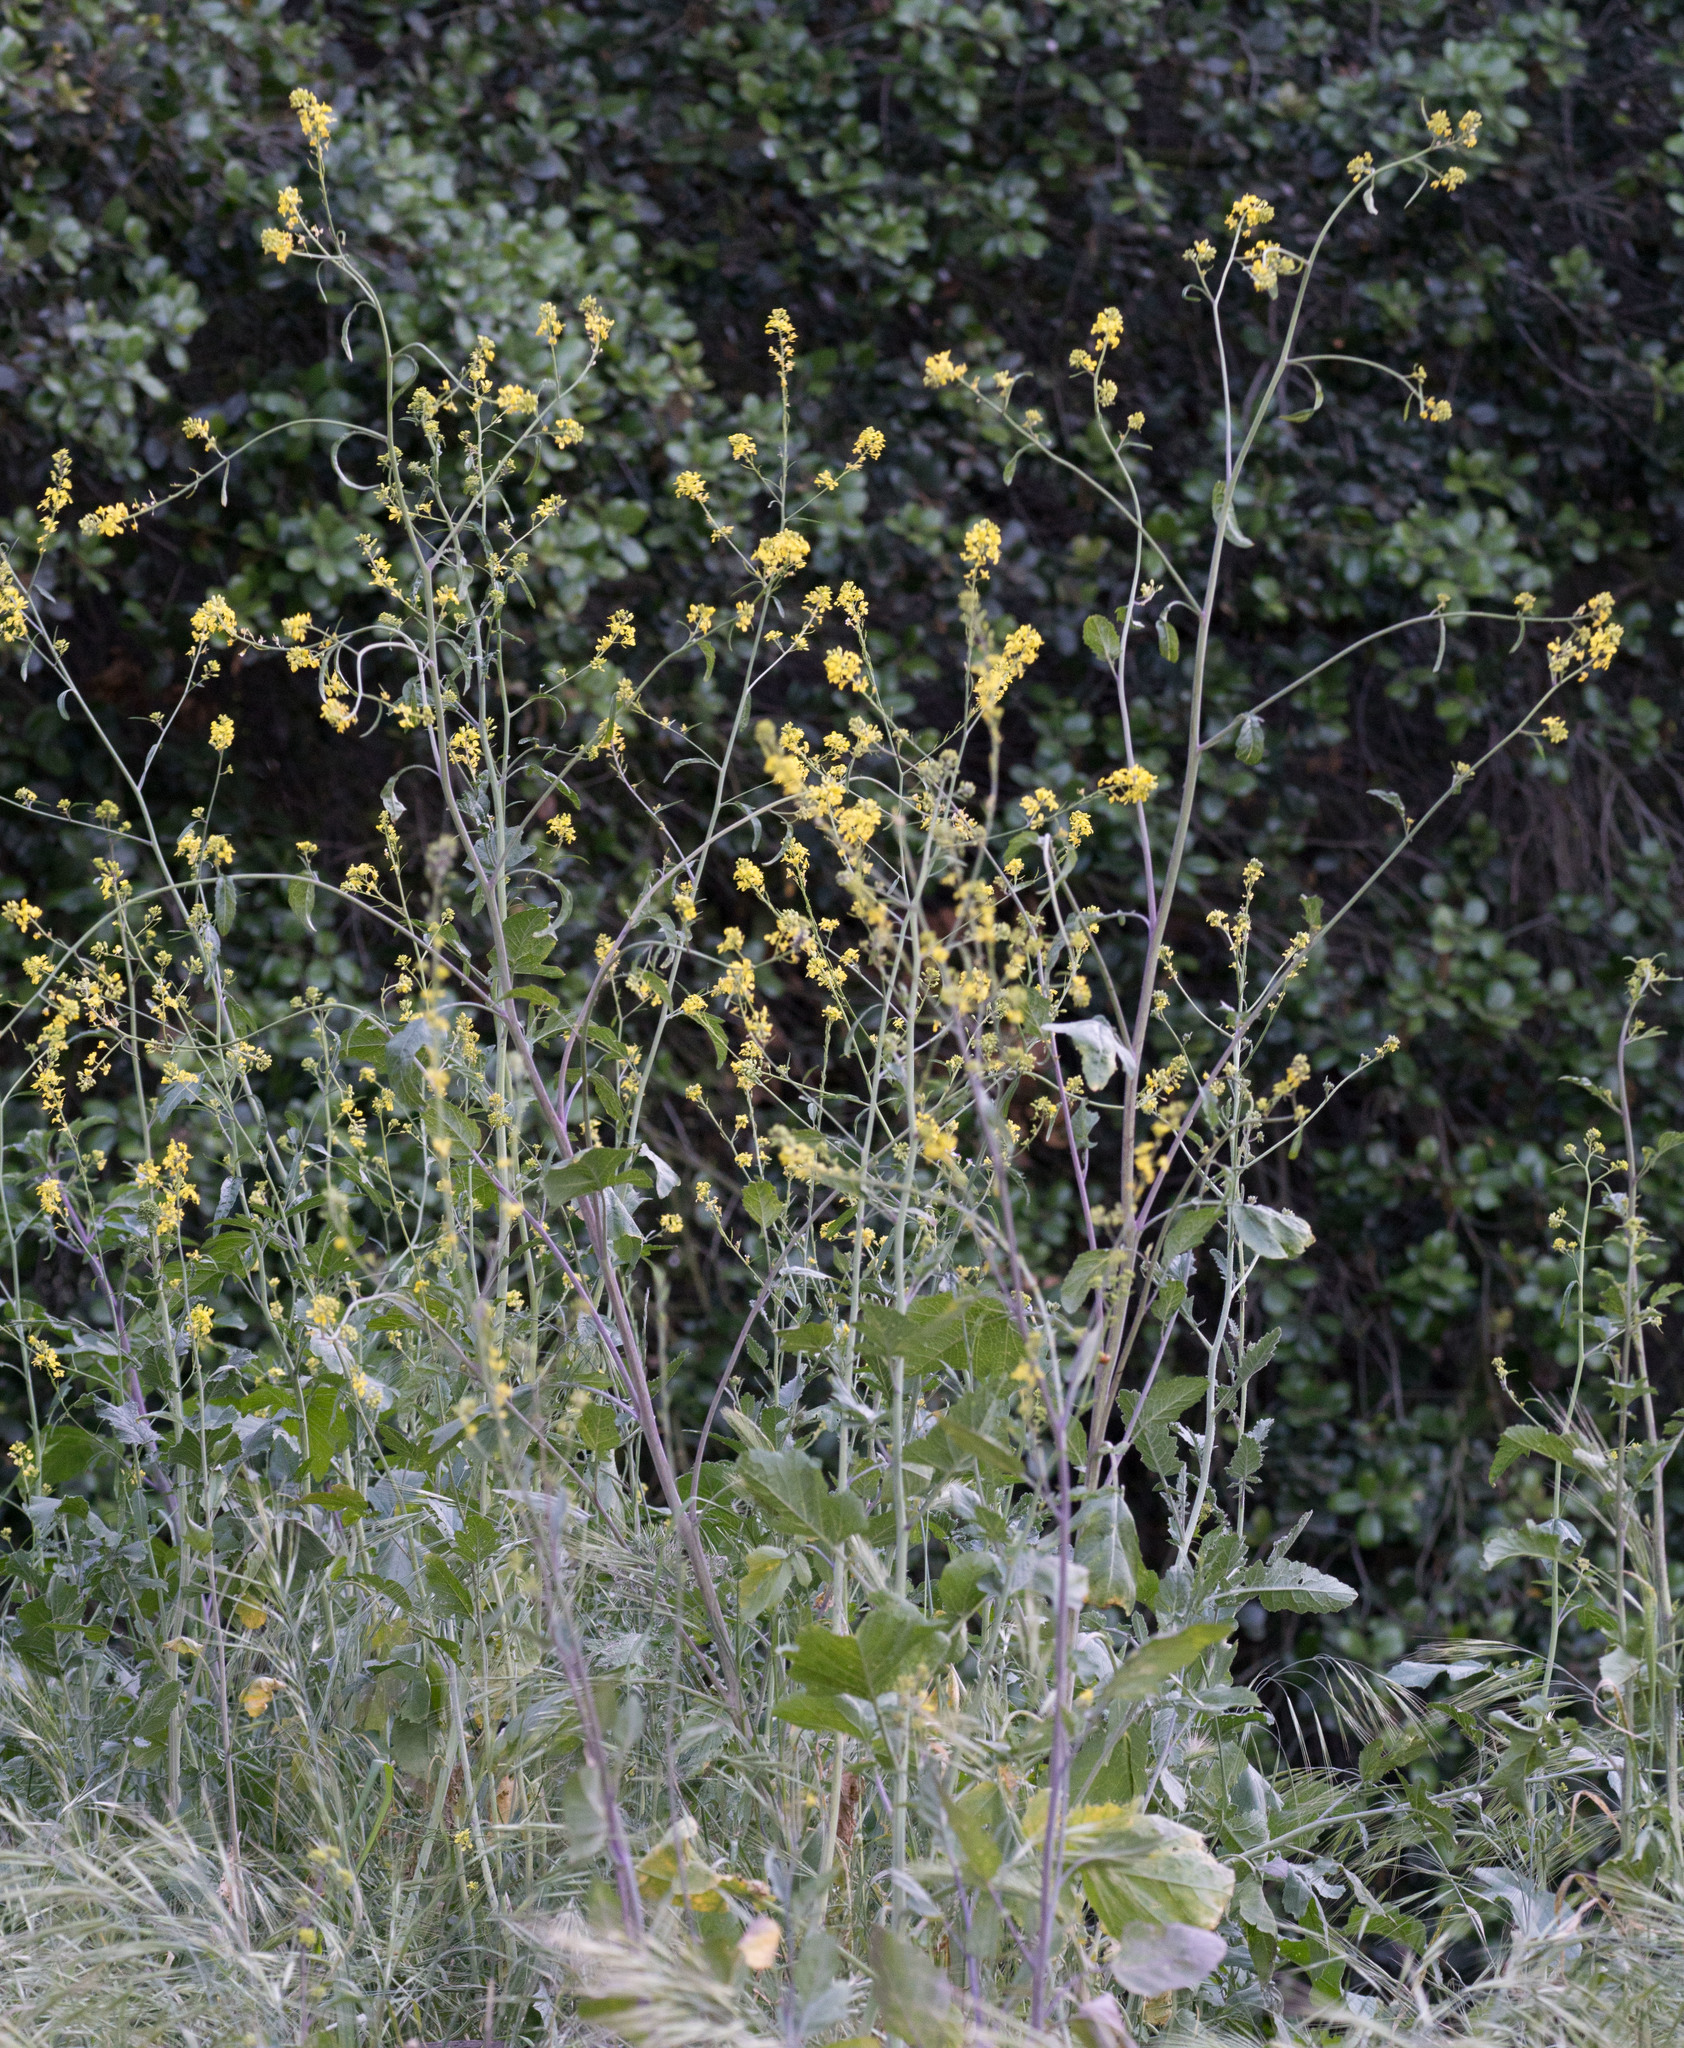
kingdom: Plantae
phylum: Tracheophyta
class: Magnoliopsida
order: Brassicales
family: Brassicaceae
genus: Brassica
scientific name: Brassica nigra
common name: Black mustard
